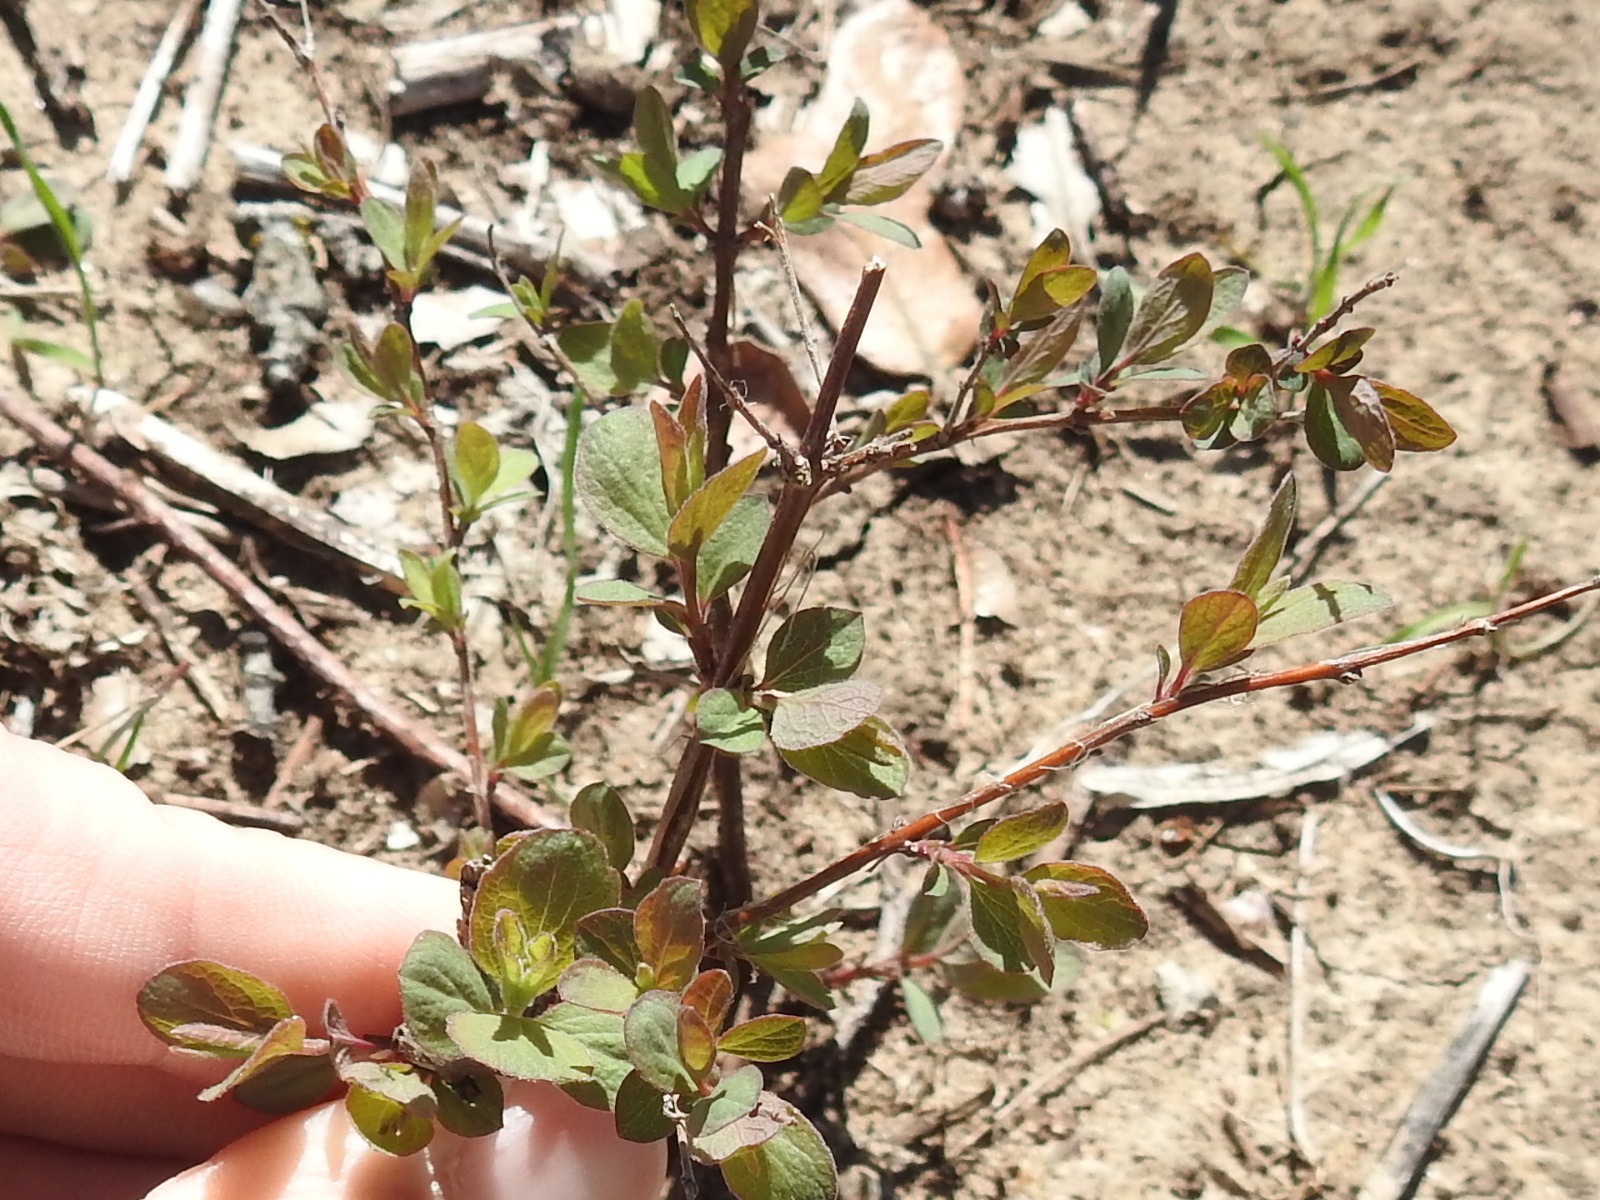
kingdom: Plantae
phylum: Tracheophyta
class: Magnoliopsida
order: Dipsacales
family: Caprifoliaceae
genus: Symphoricarpos
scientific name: Symphoricarpos orbiculatus
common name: Coralberry
